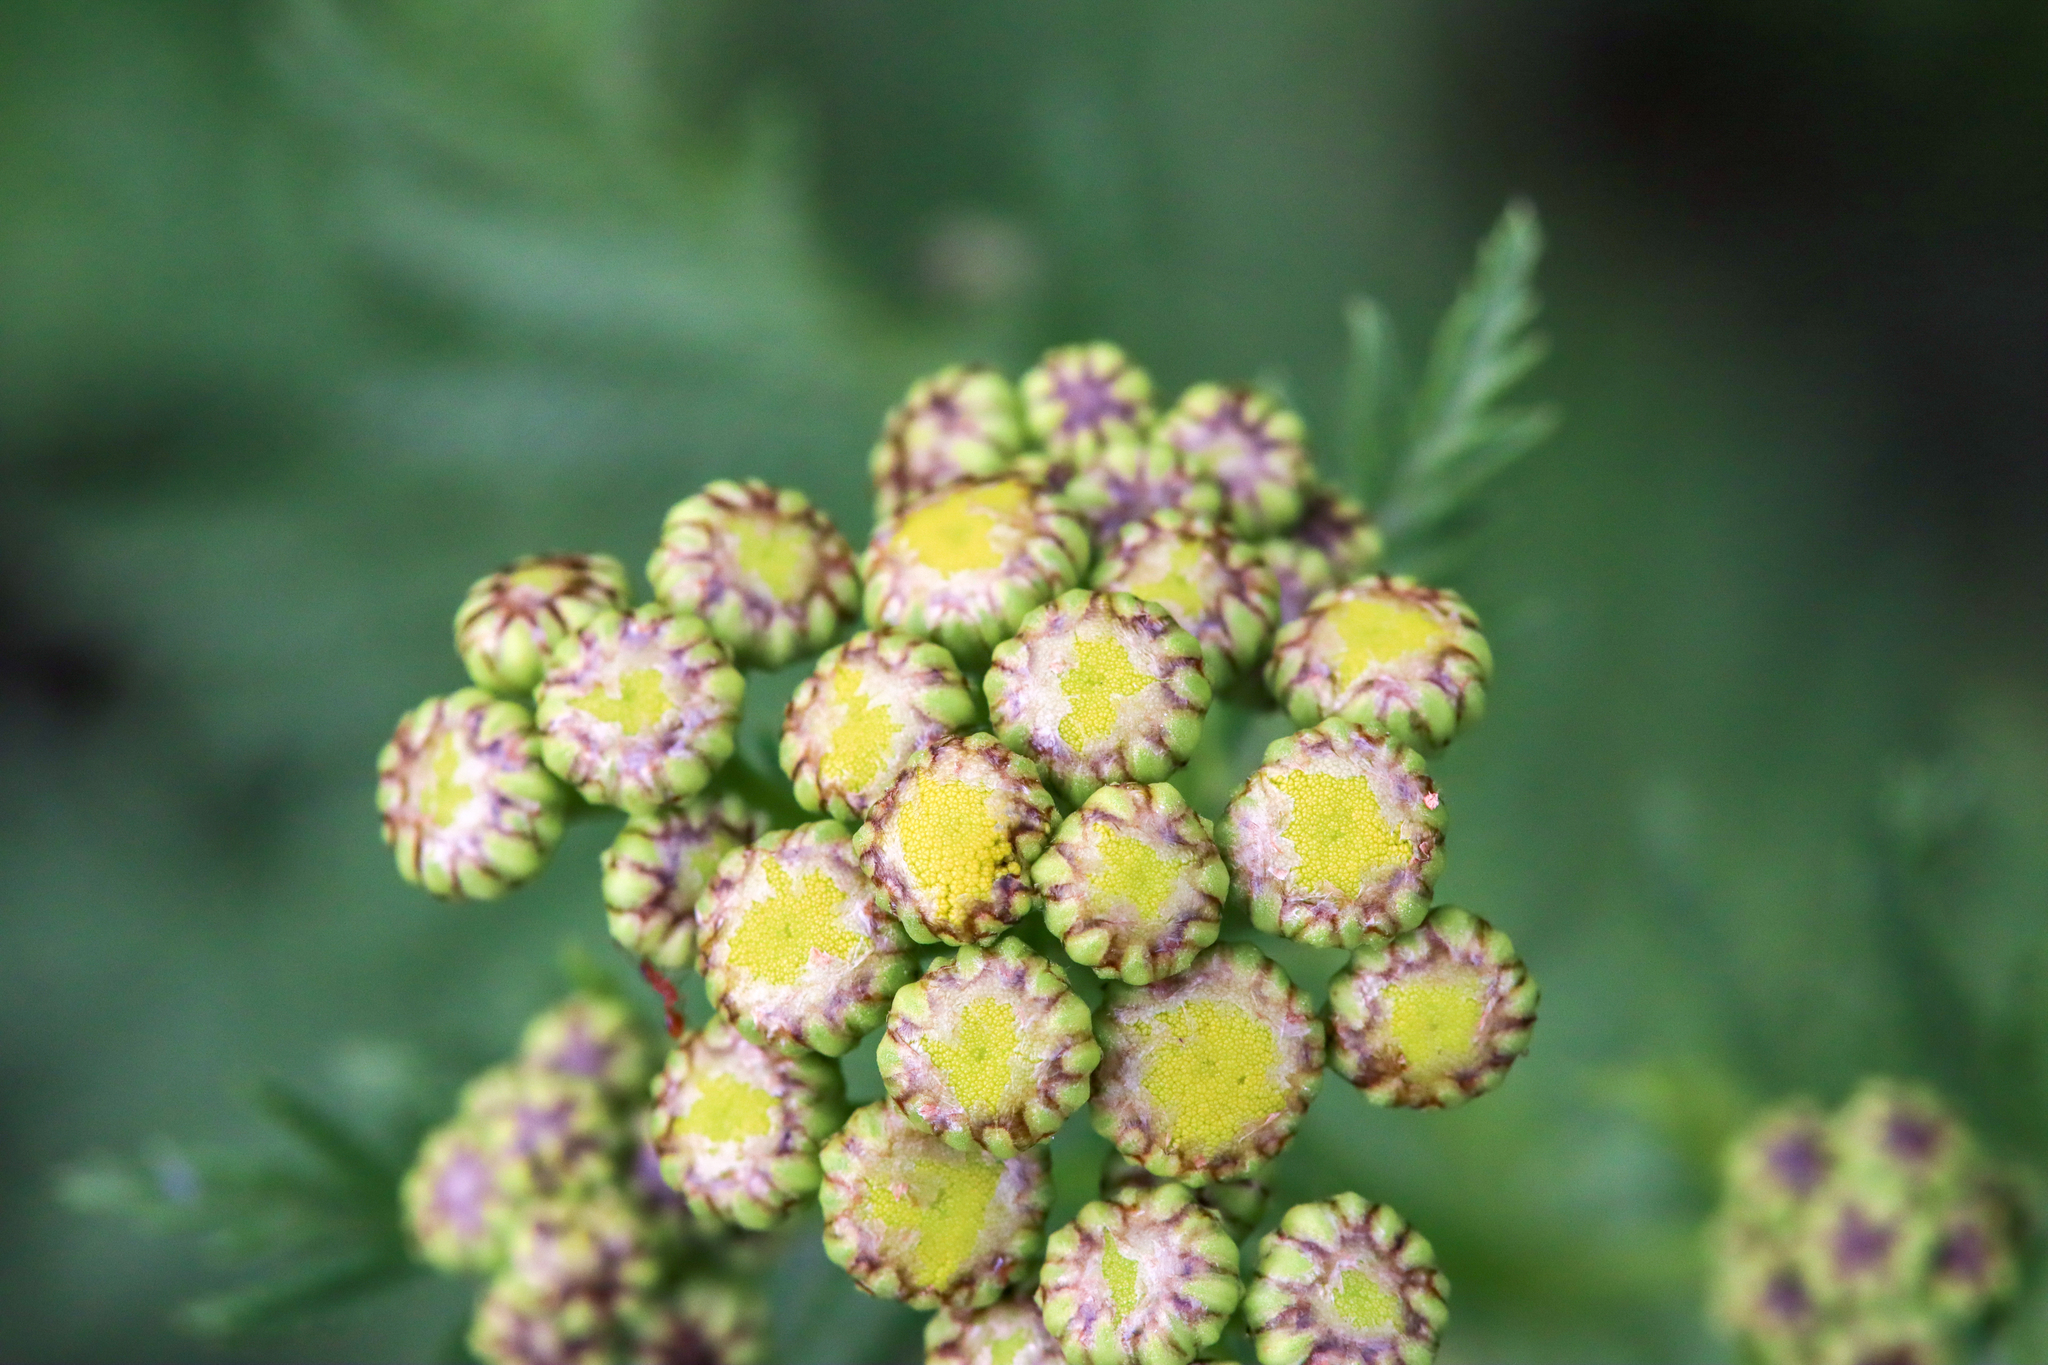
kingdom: Plantae
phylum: Tracheophyta
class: Magnoliopsida
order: Asterales
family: Asteraceae
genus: Tanacetum
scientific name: Tanacetum vulgare
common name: Common tansy
